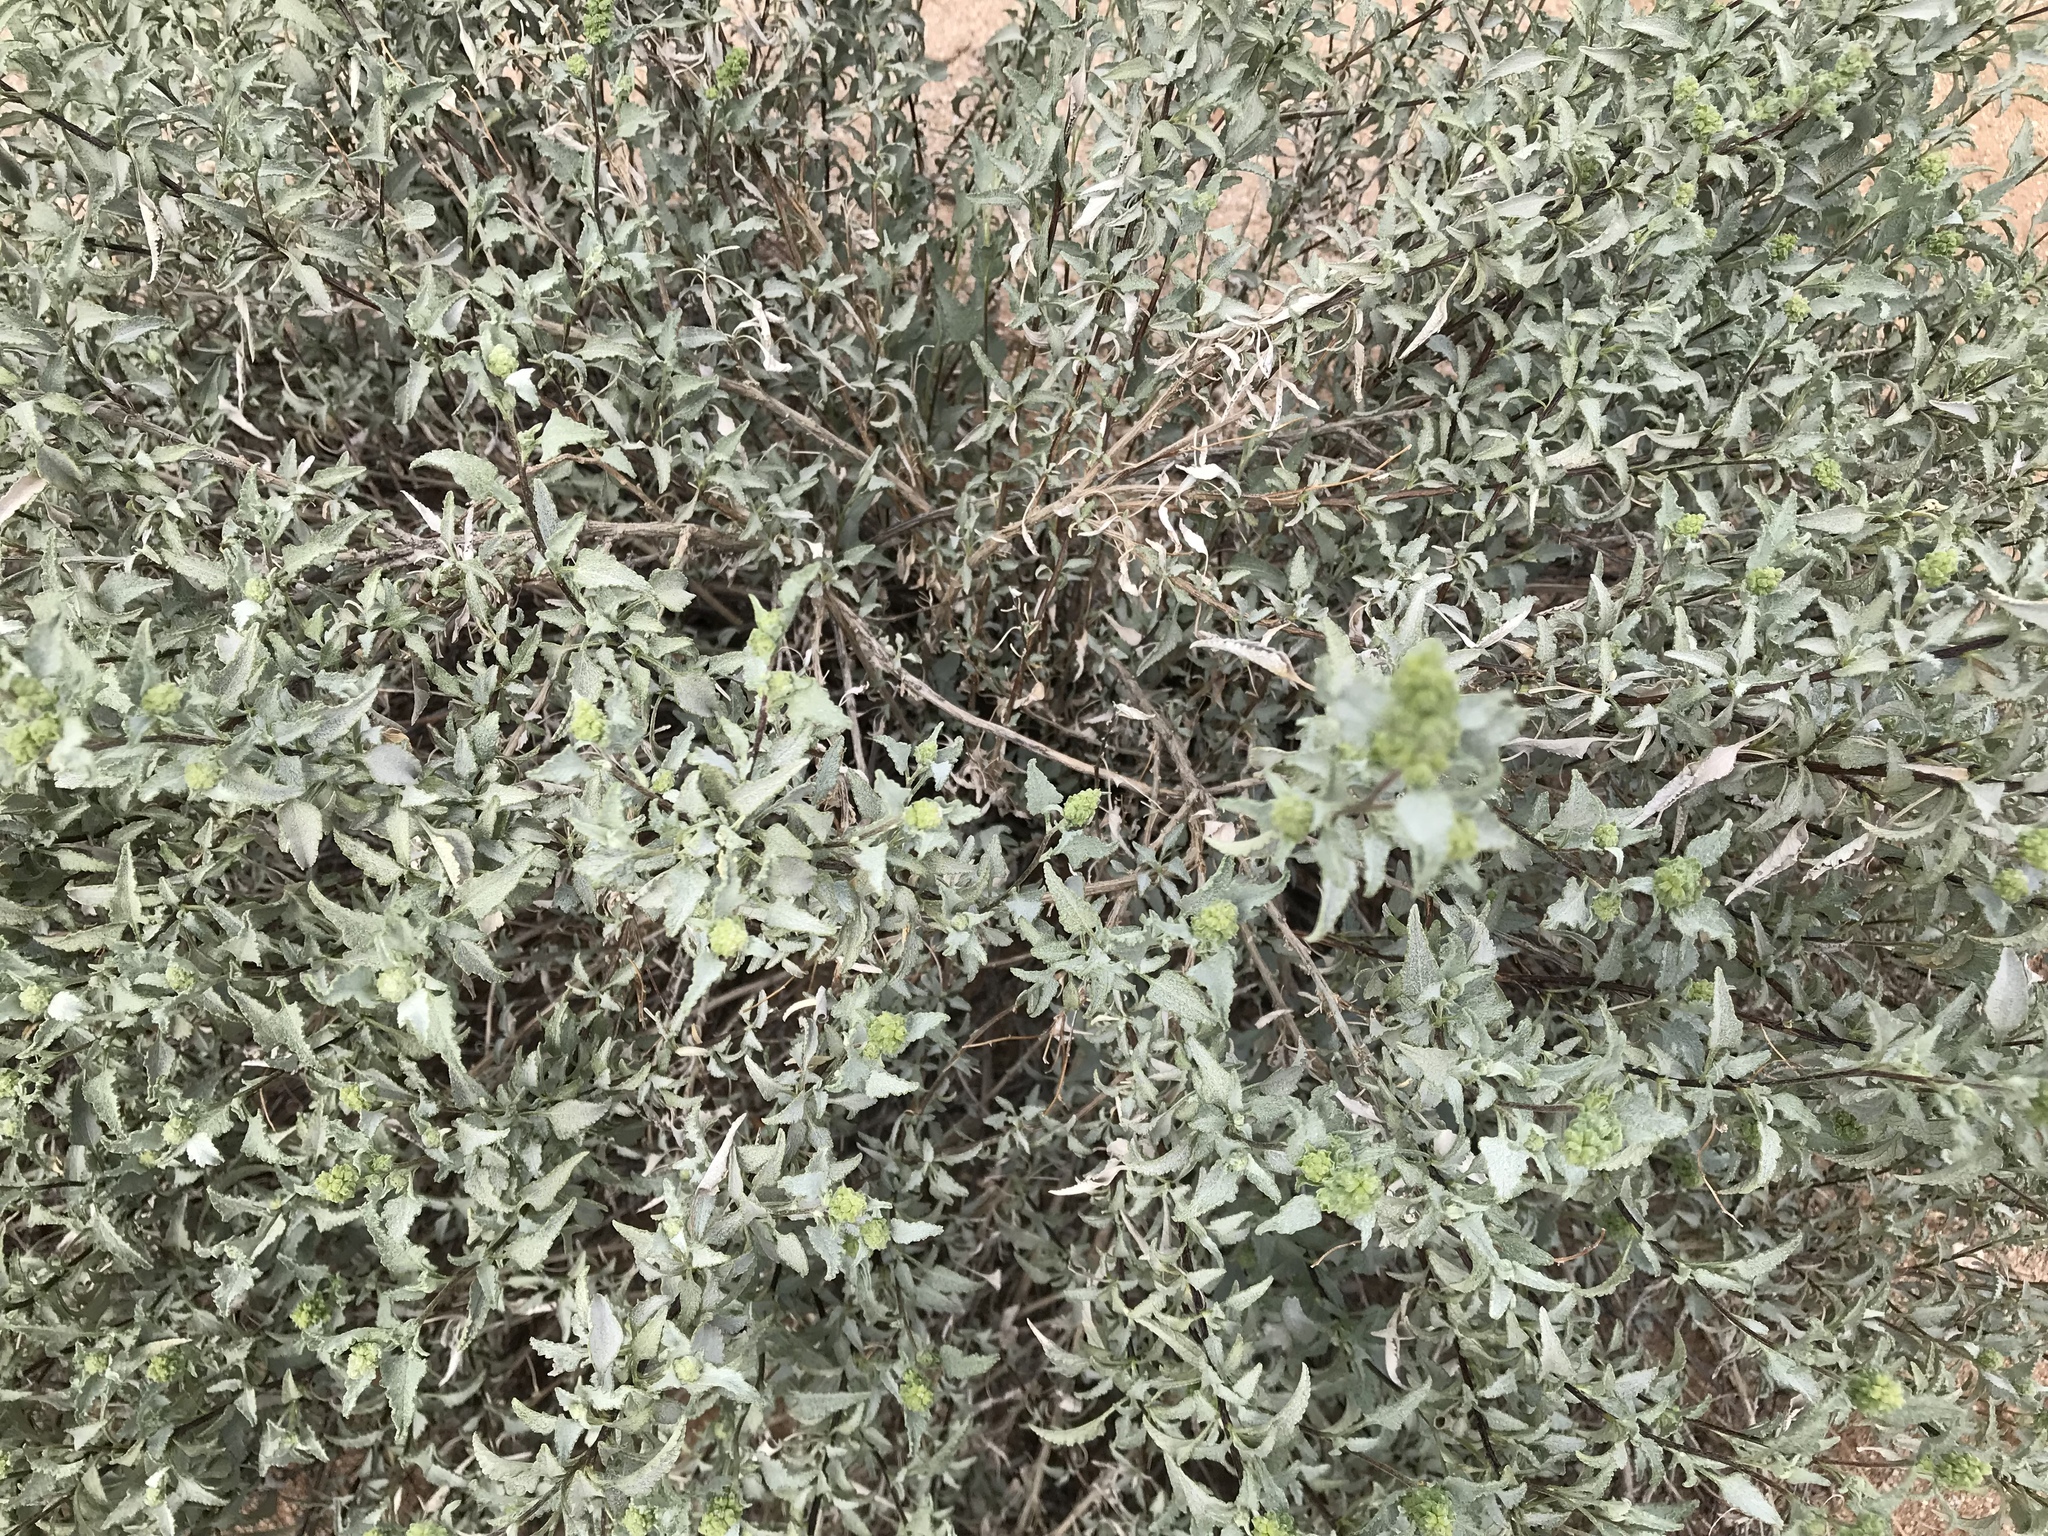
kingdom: Plantae
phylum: Tracheophyta
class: Magnoliopsida
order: Asterales
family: Asteraceae
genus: Ambrosia
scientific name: Ambrosia deltoidea
